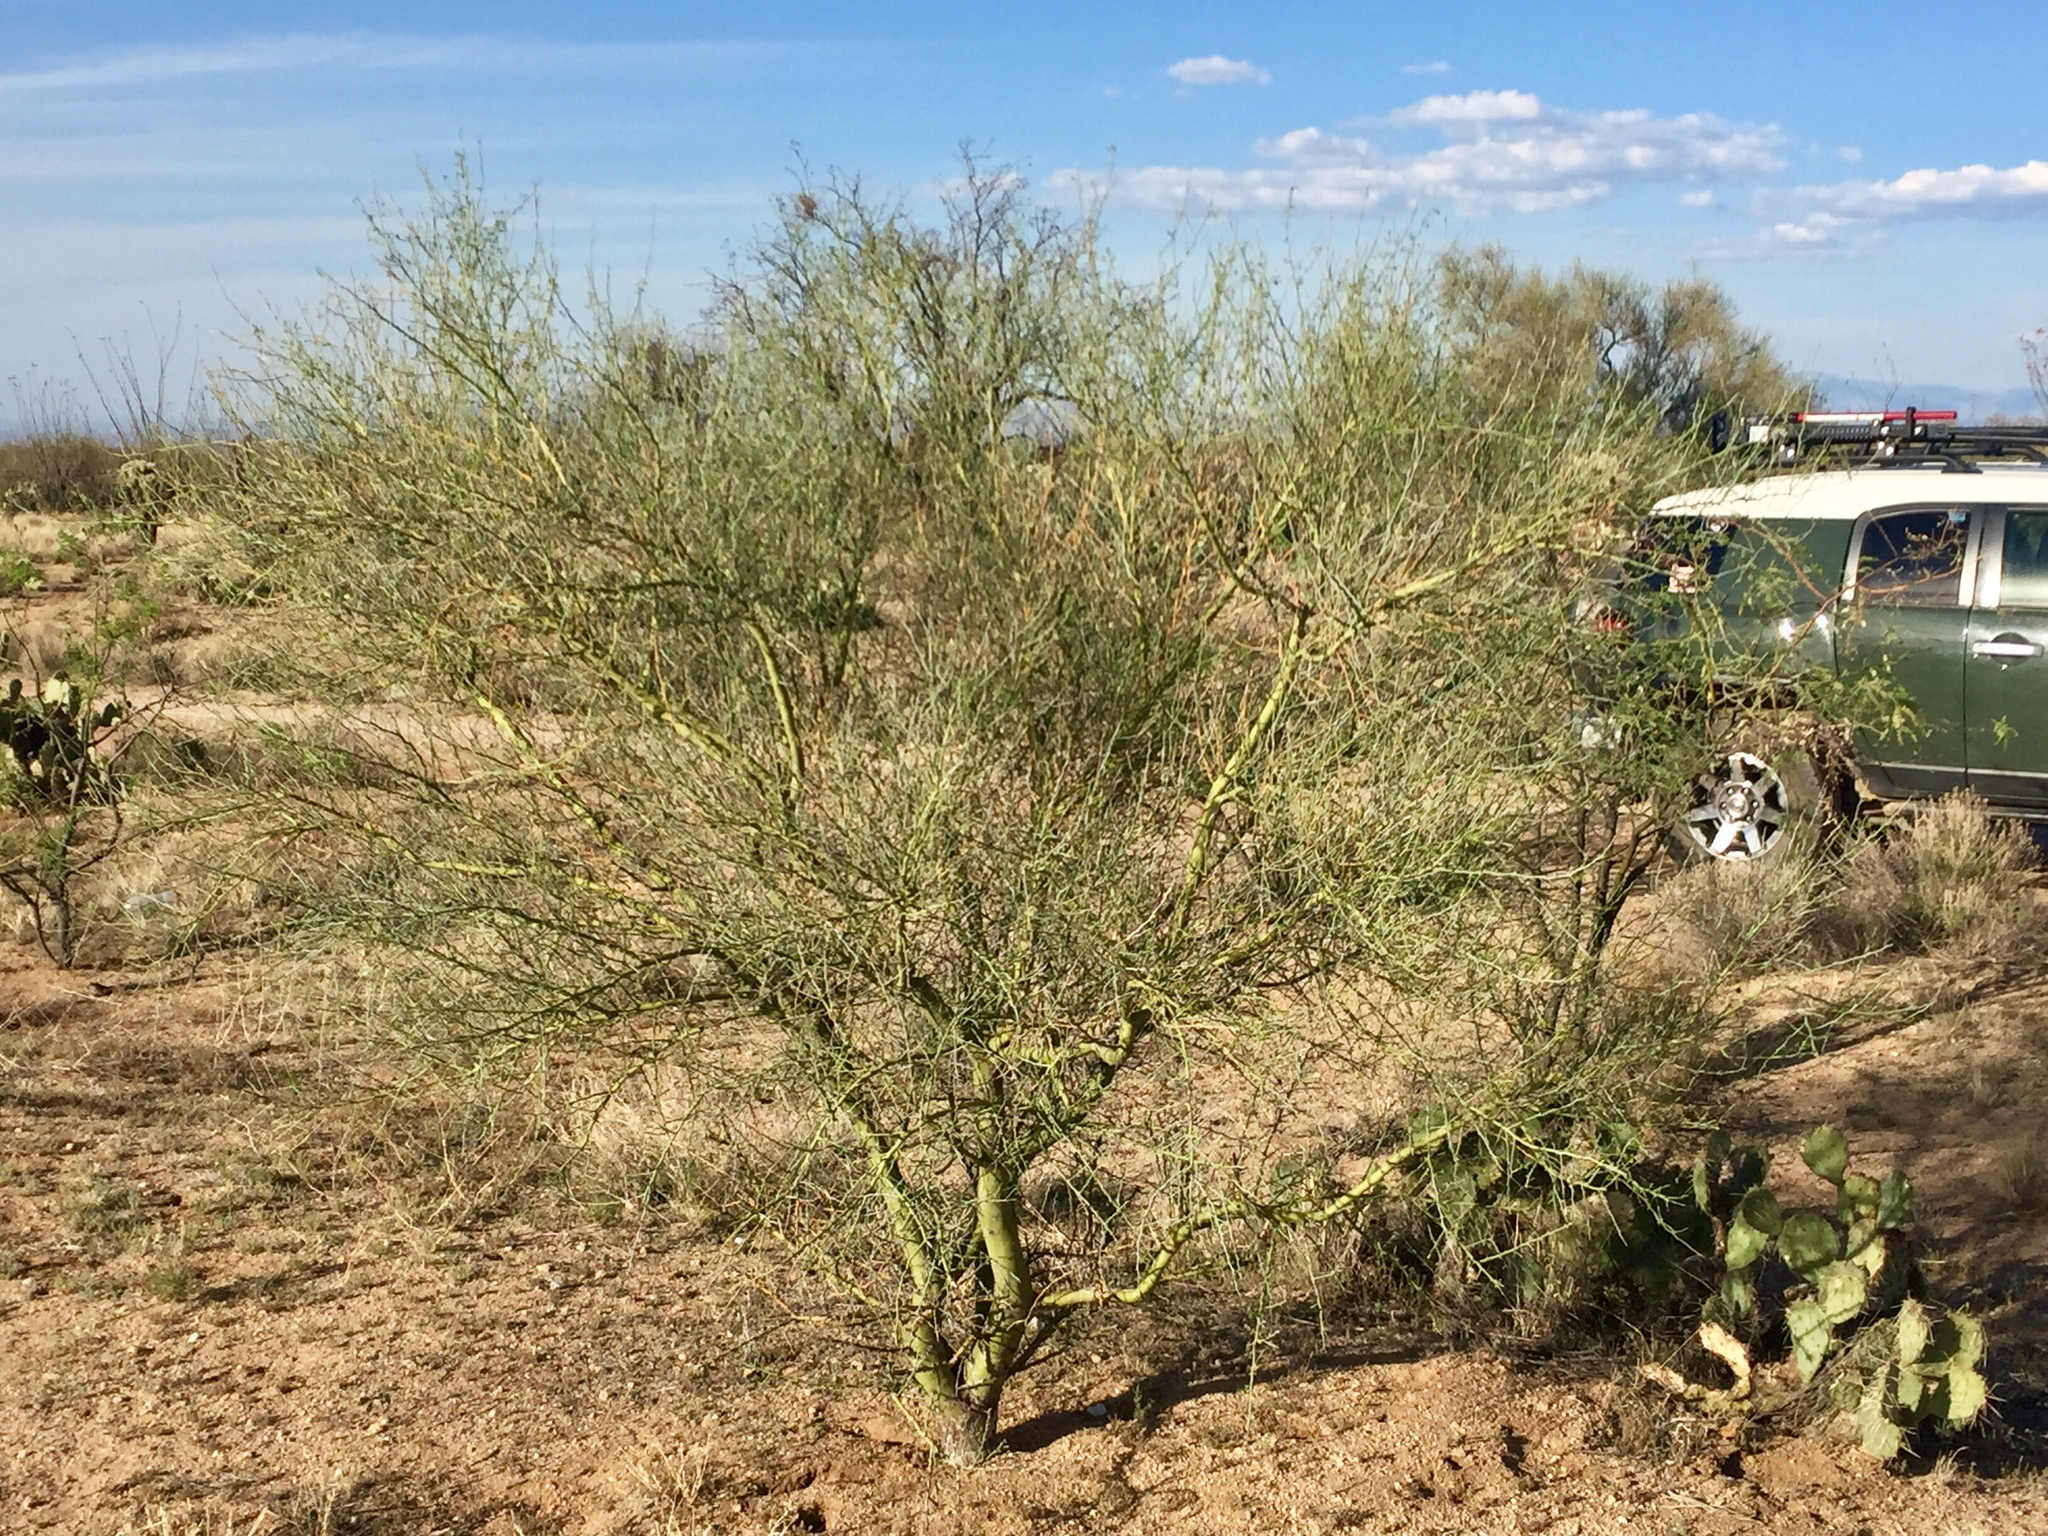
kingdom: Plantae
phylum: Tracheophyta
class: Magnoliopsida
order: Fabales
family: Fabaceae
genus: Parkinsonia
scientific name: Parkinsonia microphylla
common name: Yellow paloverde
